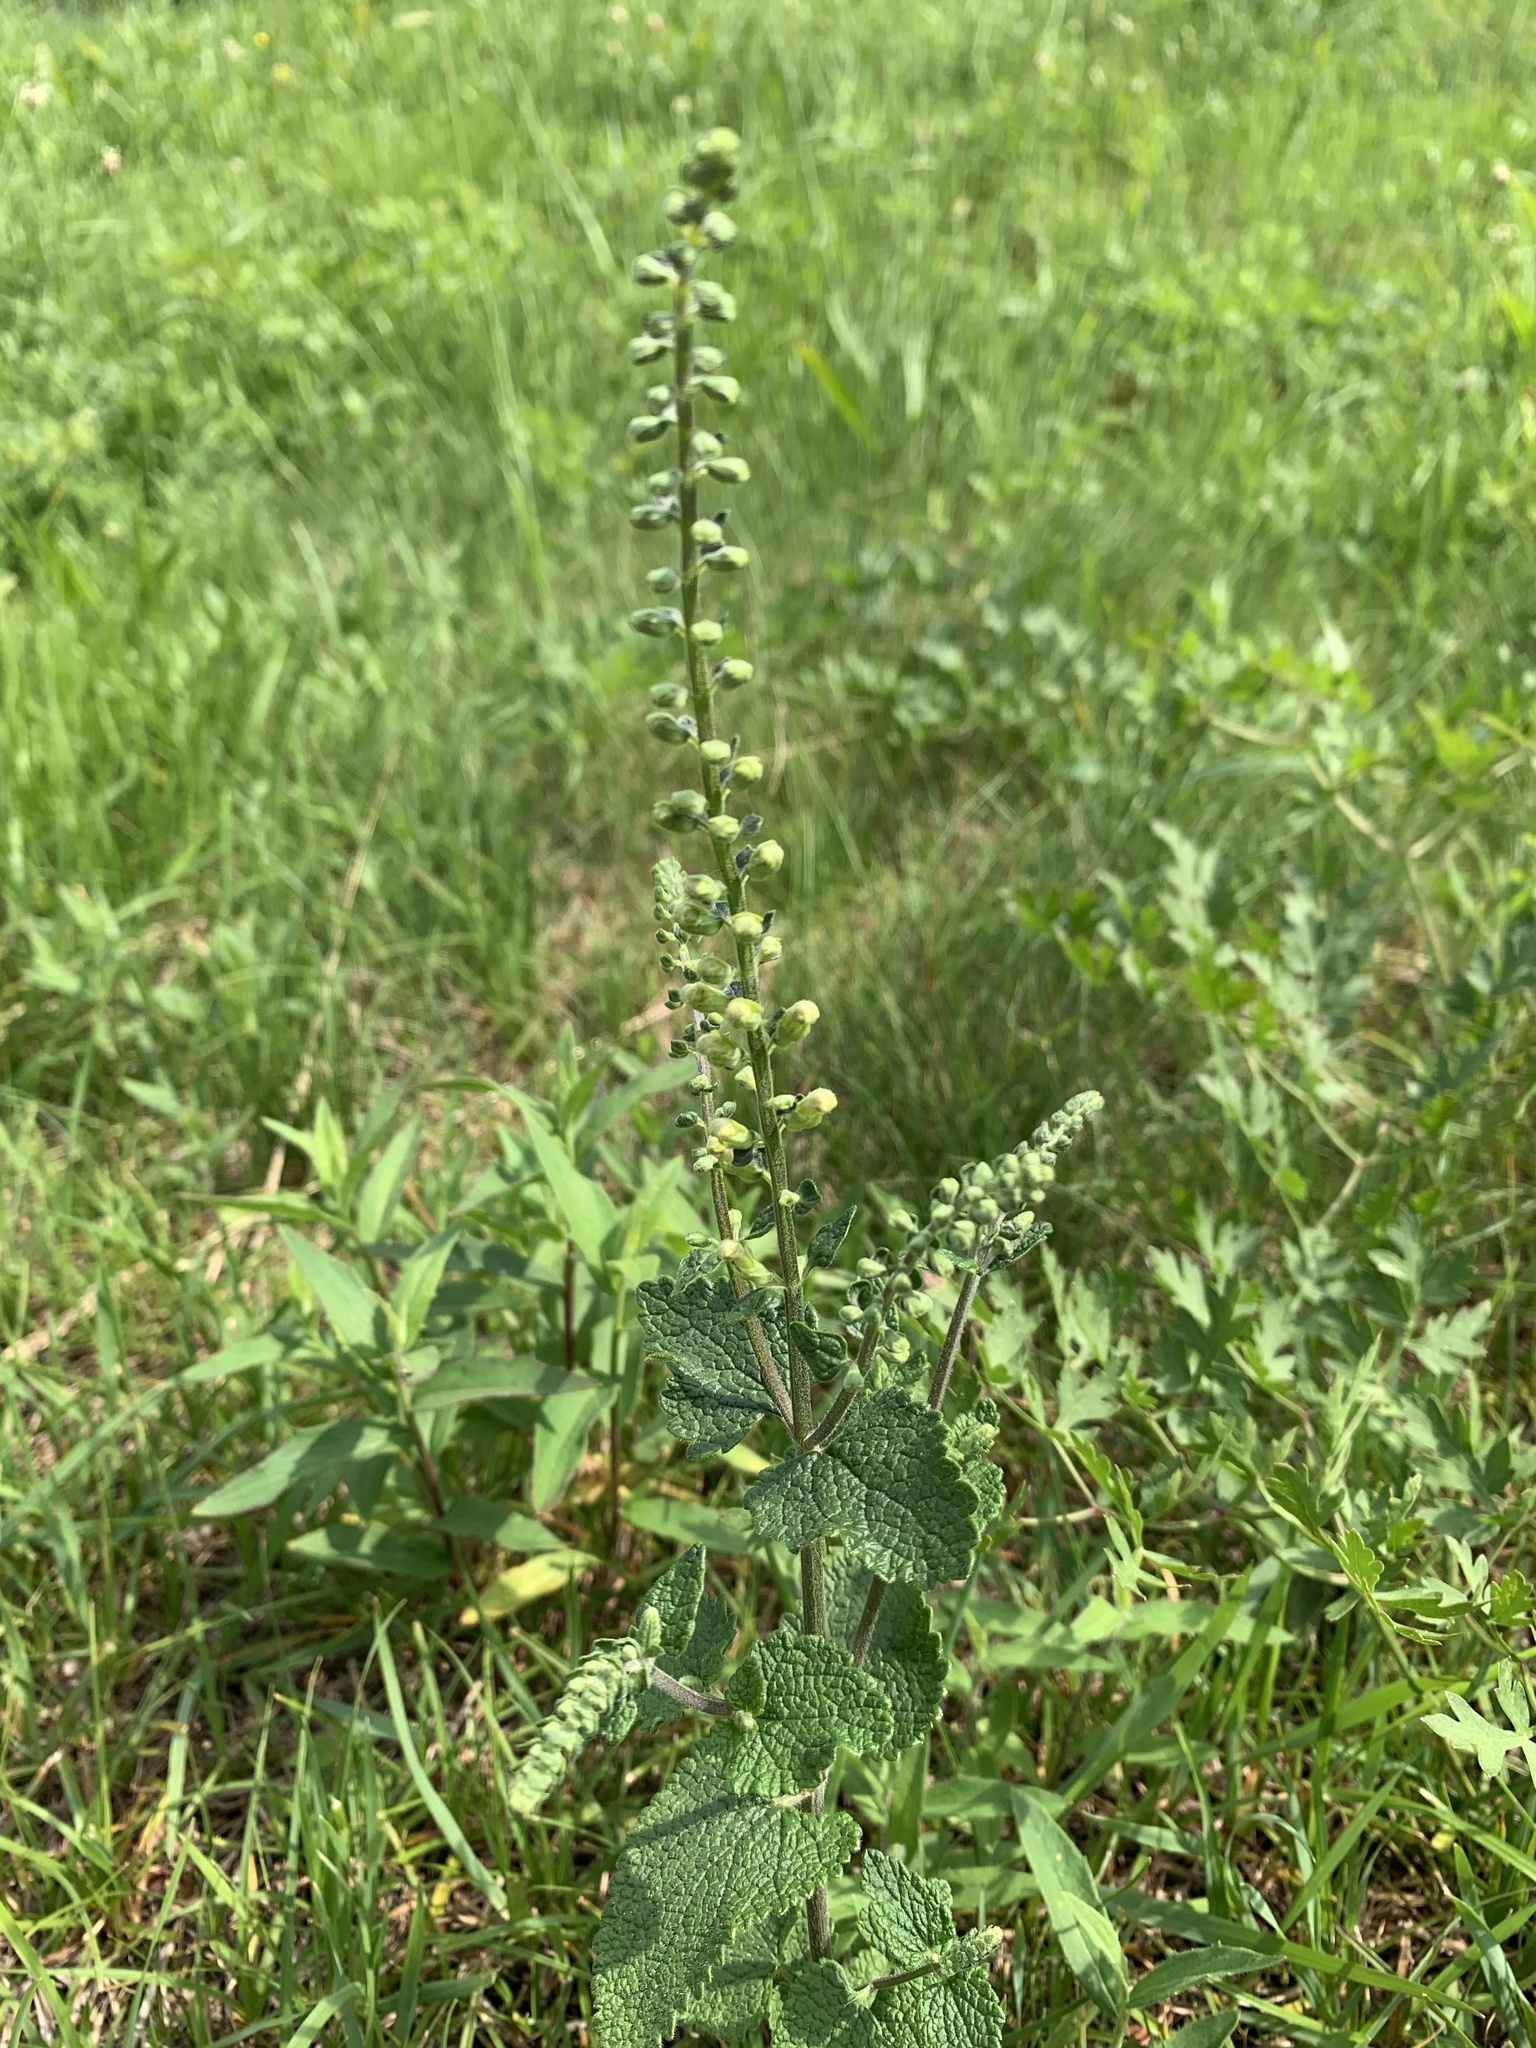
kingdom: Plantae
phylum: Tracheophyta
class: Magnoliopsida
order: Lamiales
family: Lamiaceae
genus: Teucrium
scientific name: Teucrium scorodonia
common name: Woodland germander
